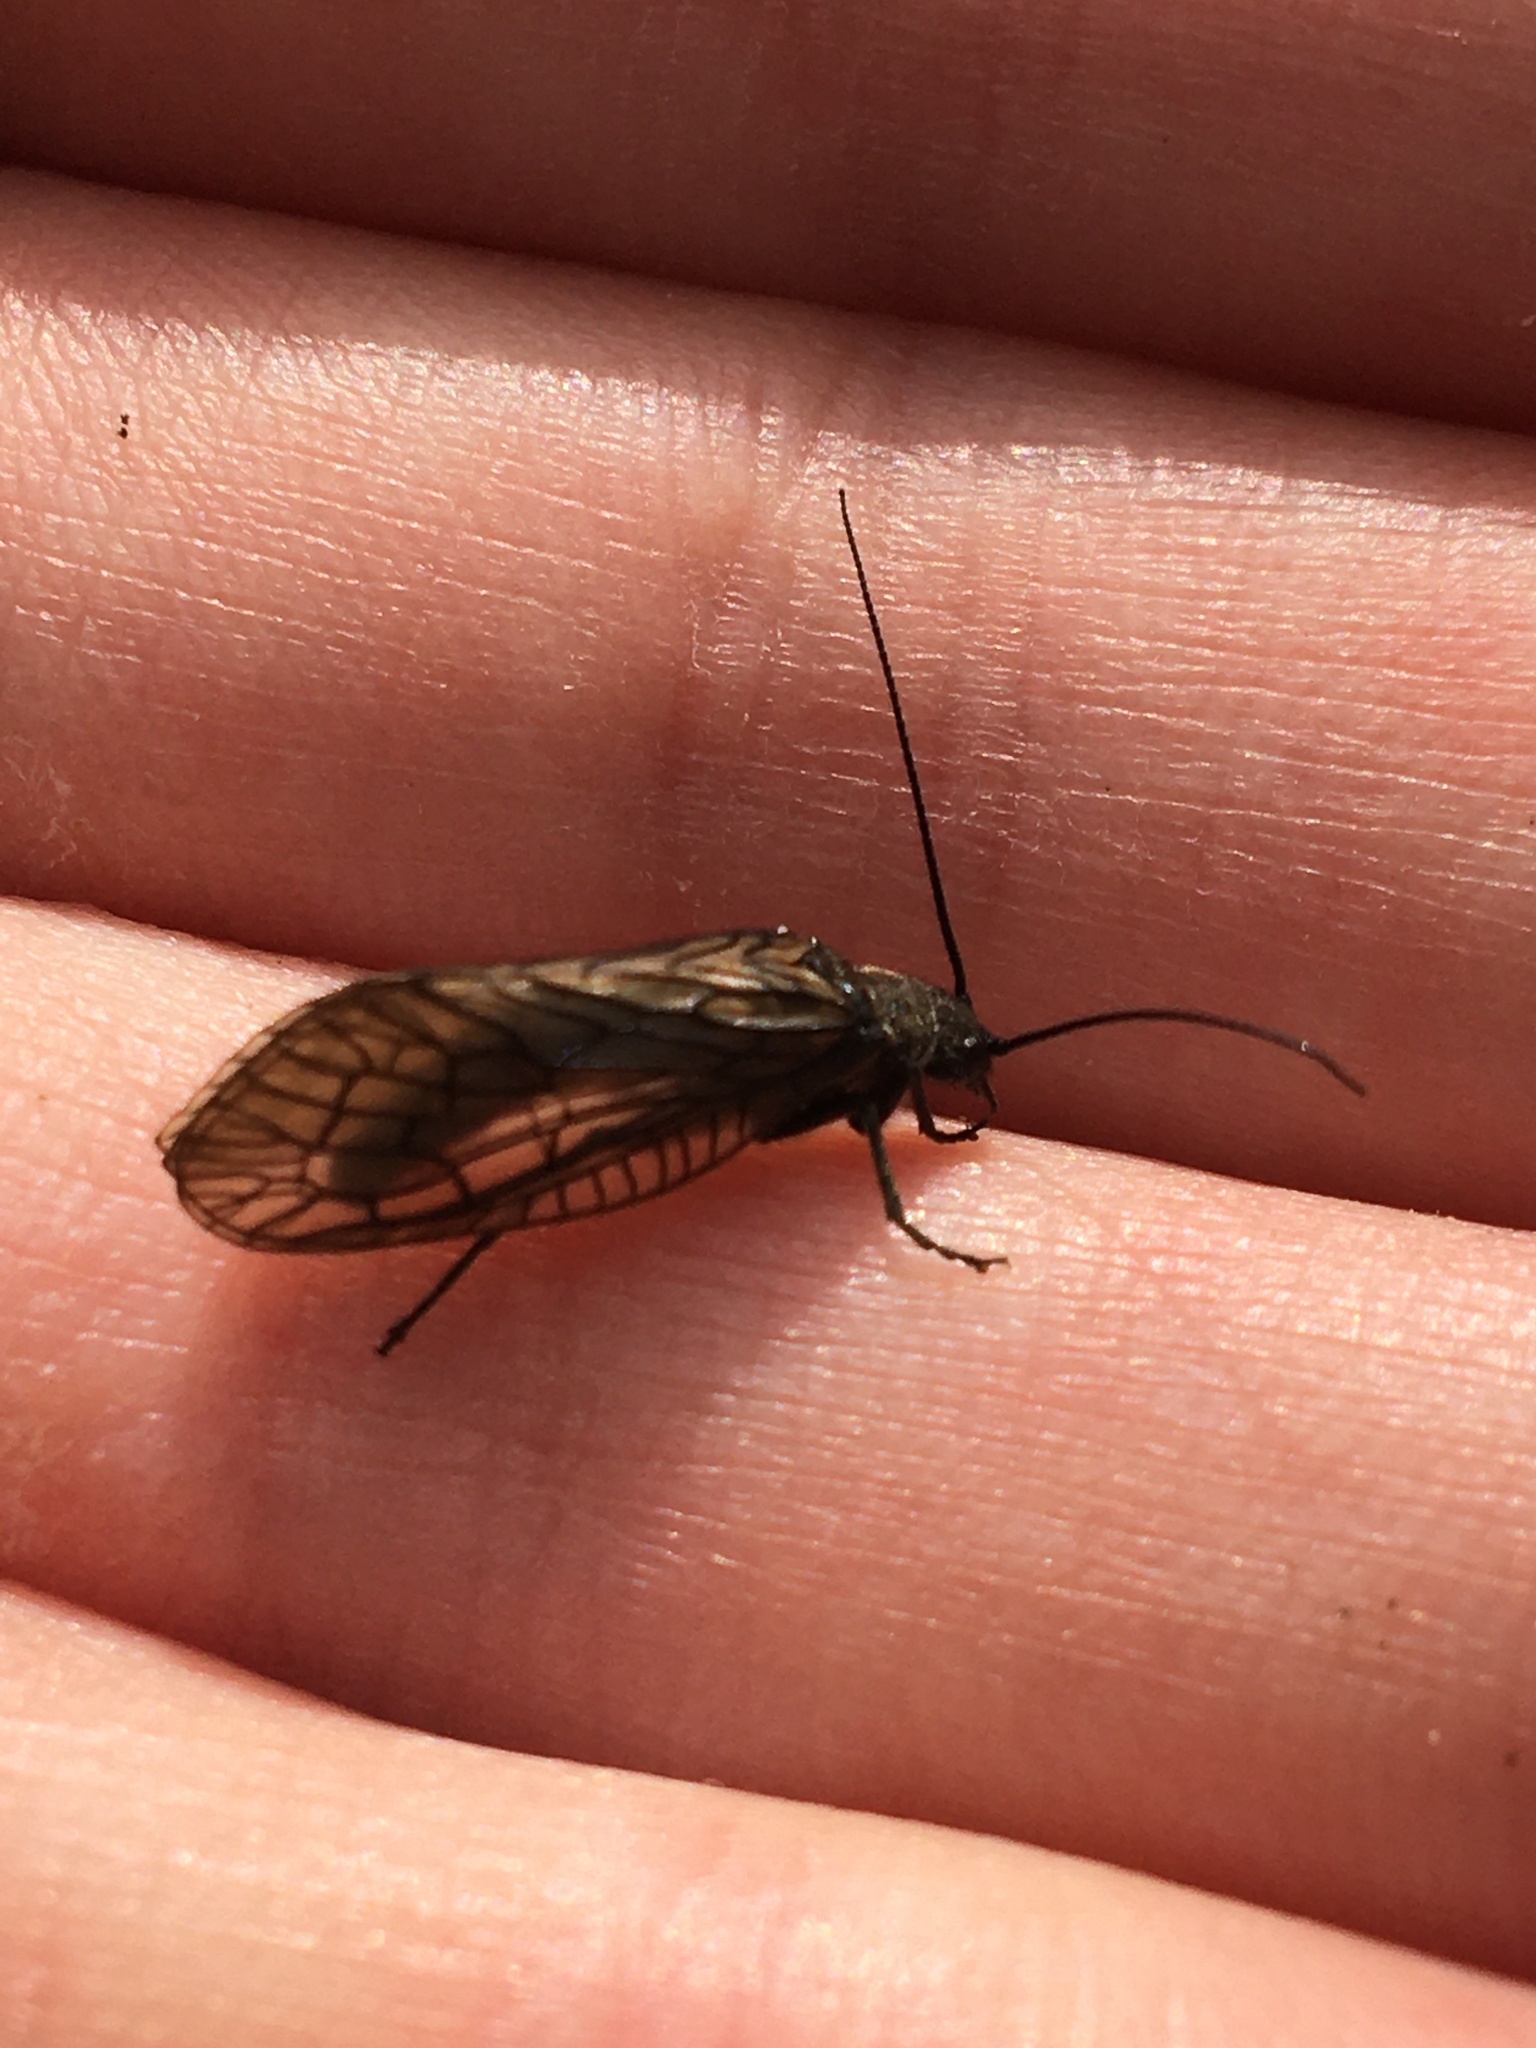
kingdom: Animalia
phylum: Arthropoda
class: Insecta
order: Megaloptera
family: Sialidae
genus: Sialis
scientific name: Sialis
